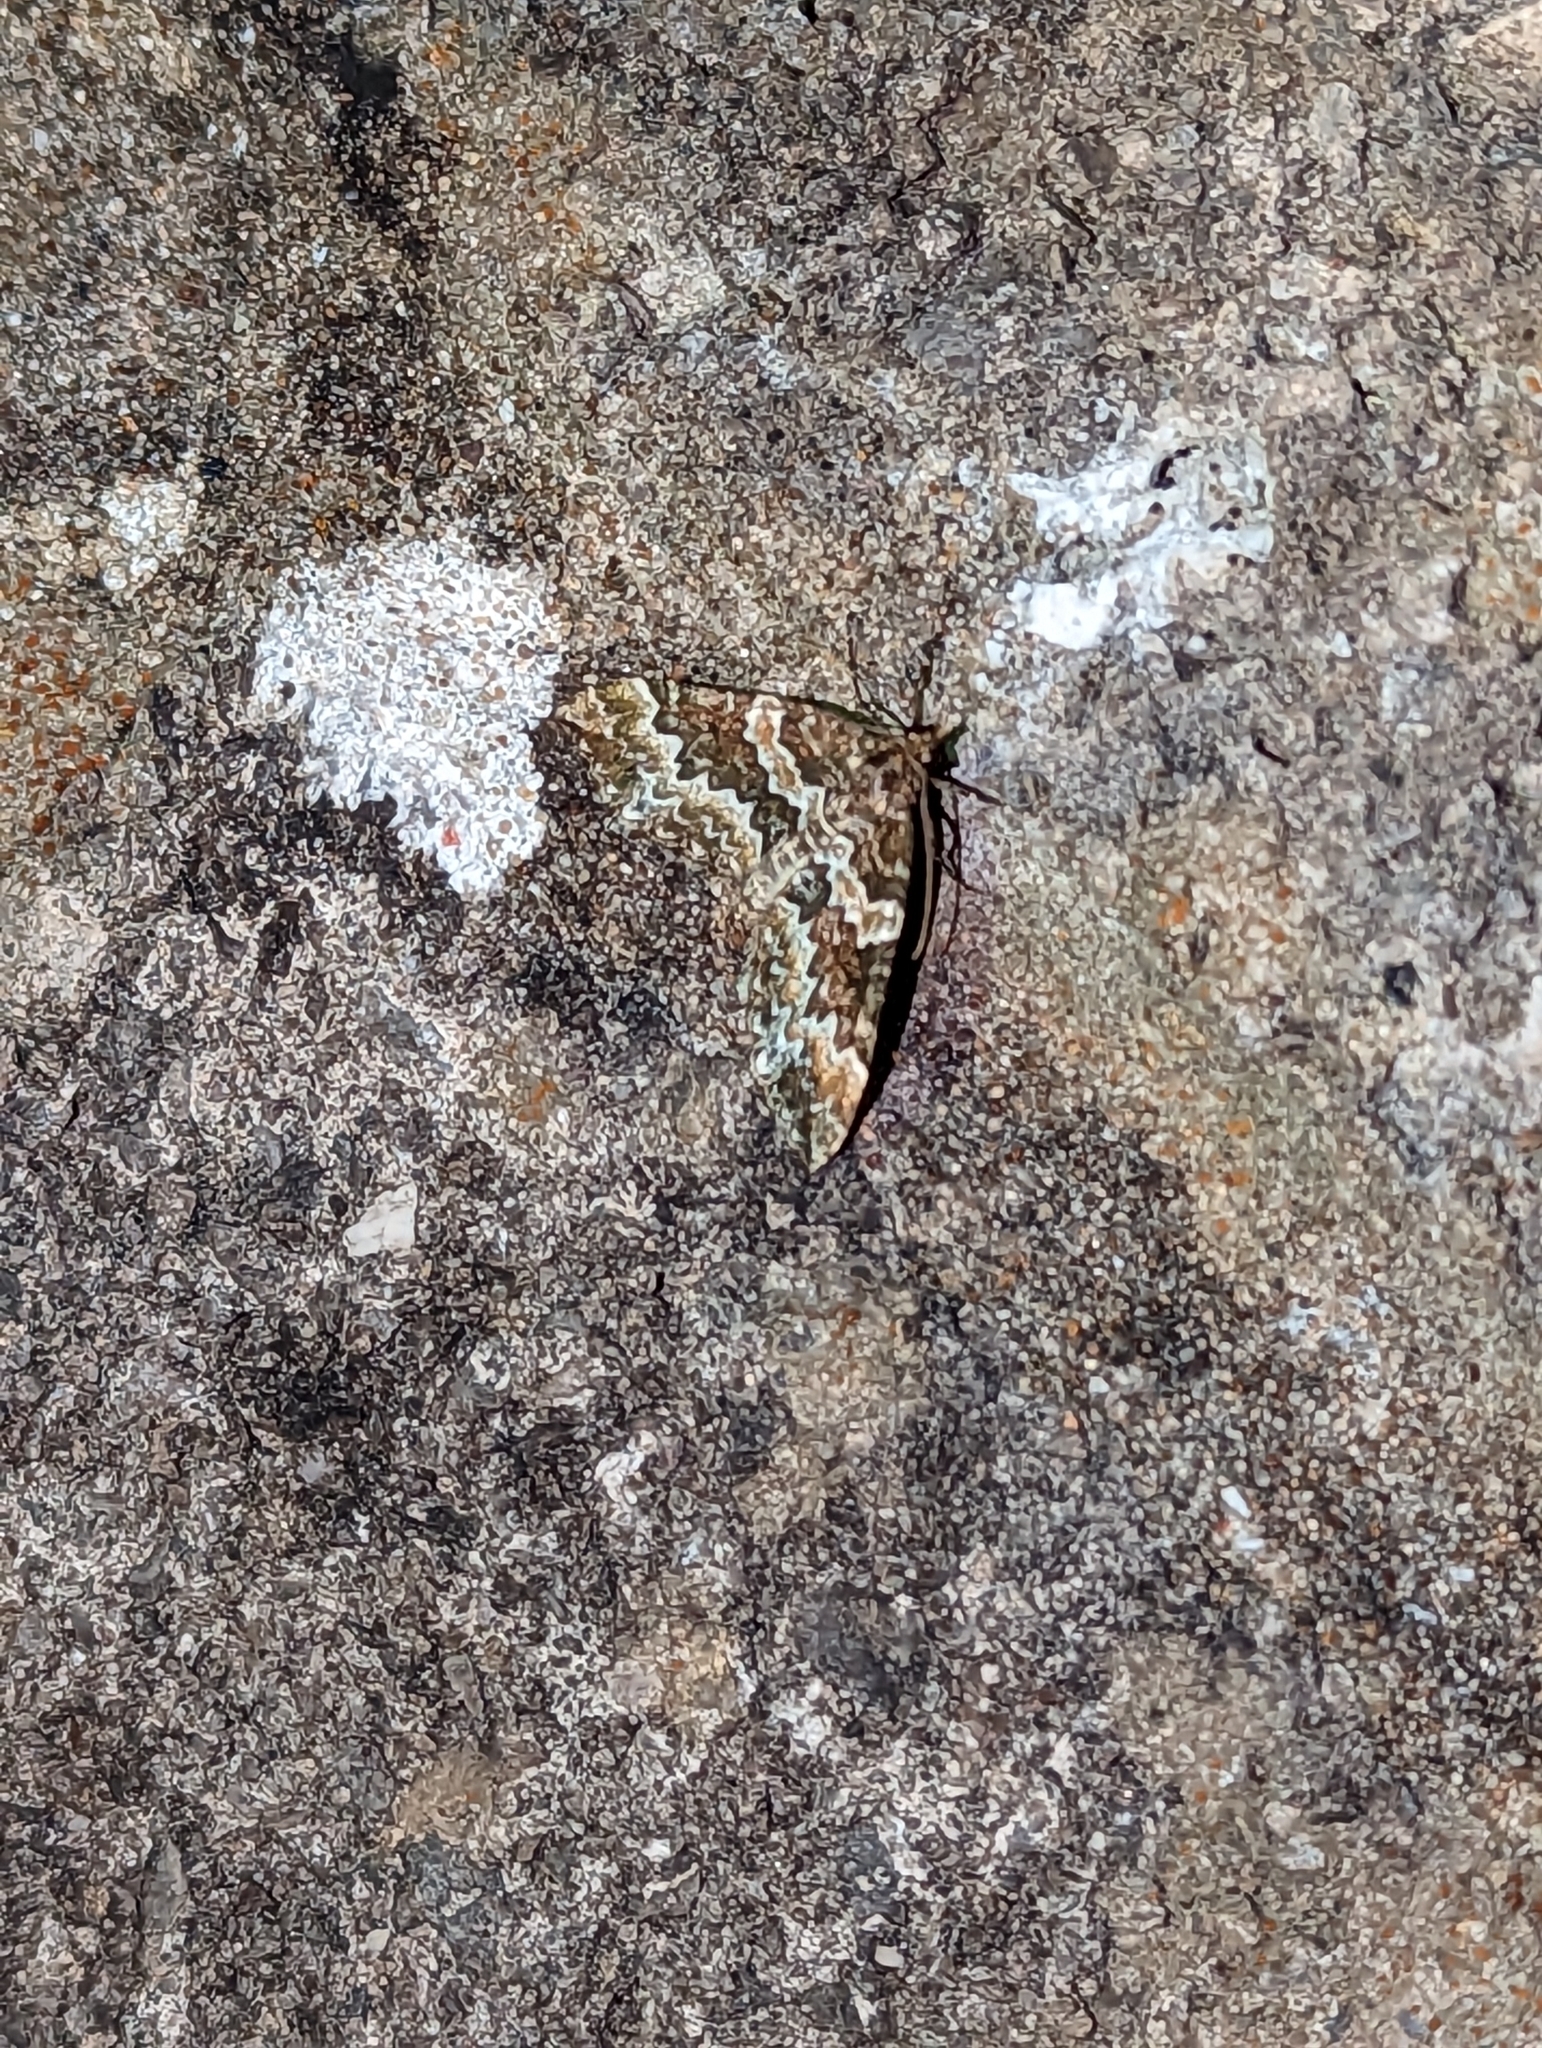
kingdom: Animalia
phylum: Arthropoda
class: Insecta
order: Lepidoptera
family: Geometridae
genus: Electrophaes
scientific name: Electrophaes corylata
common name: Broken-barred carpet
